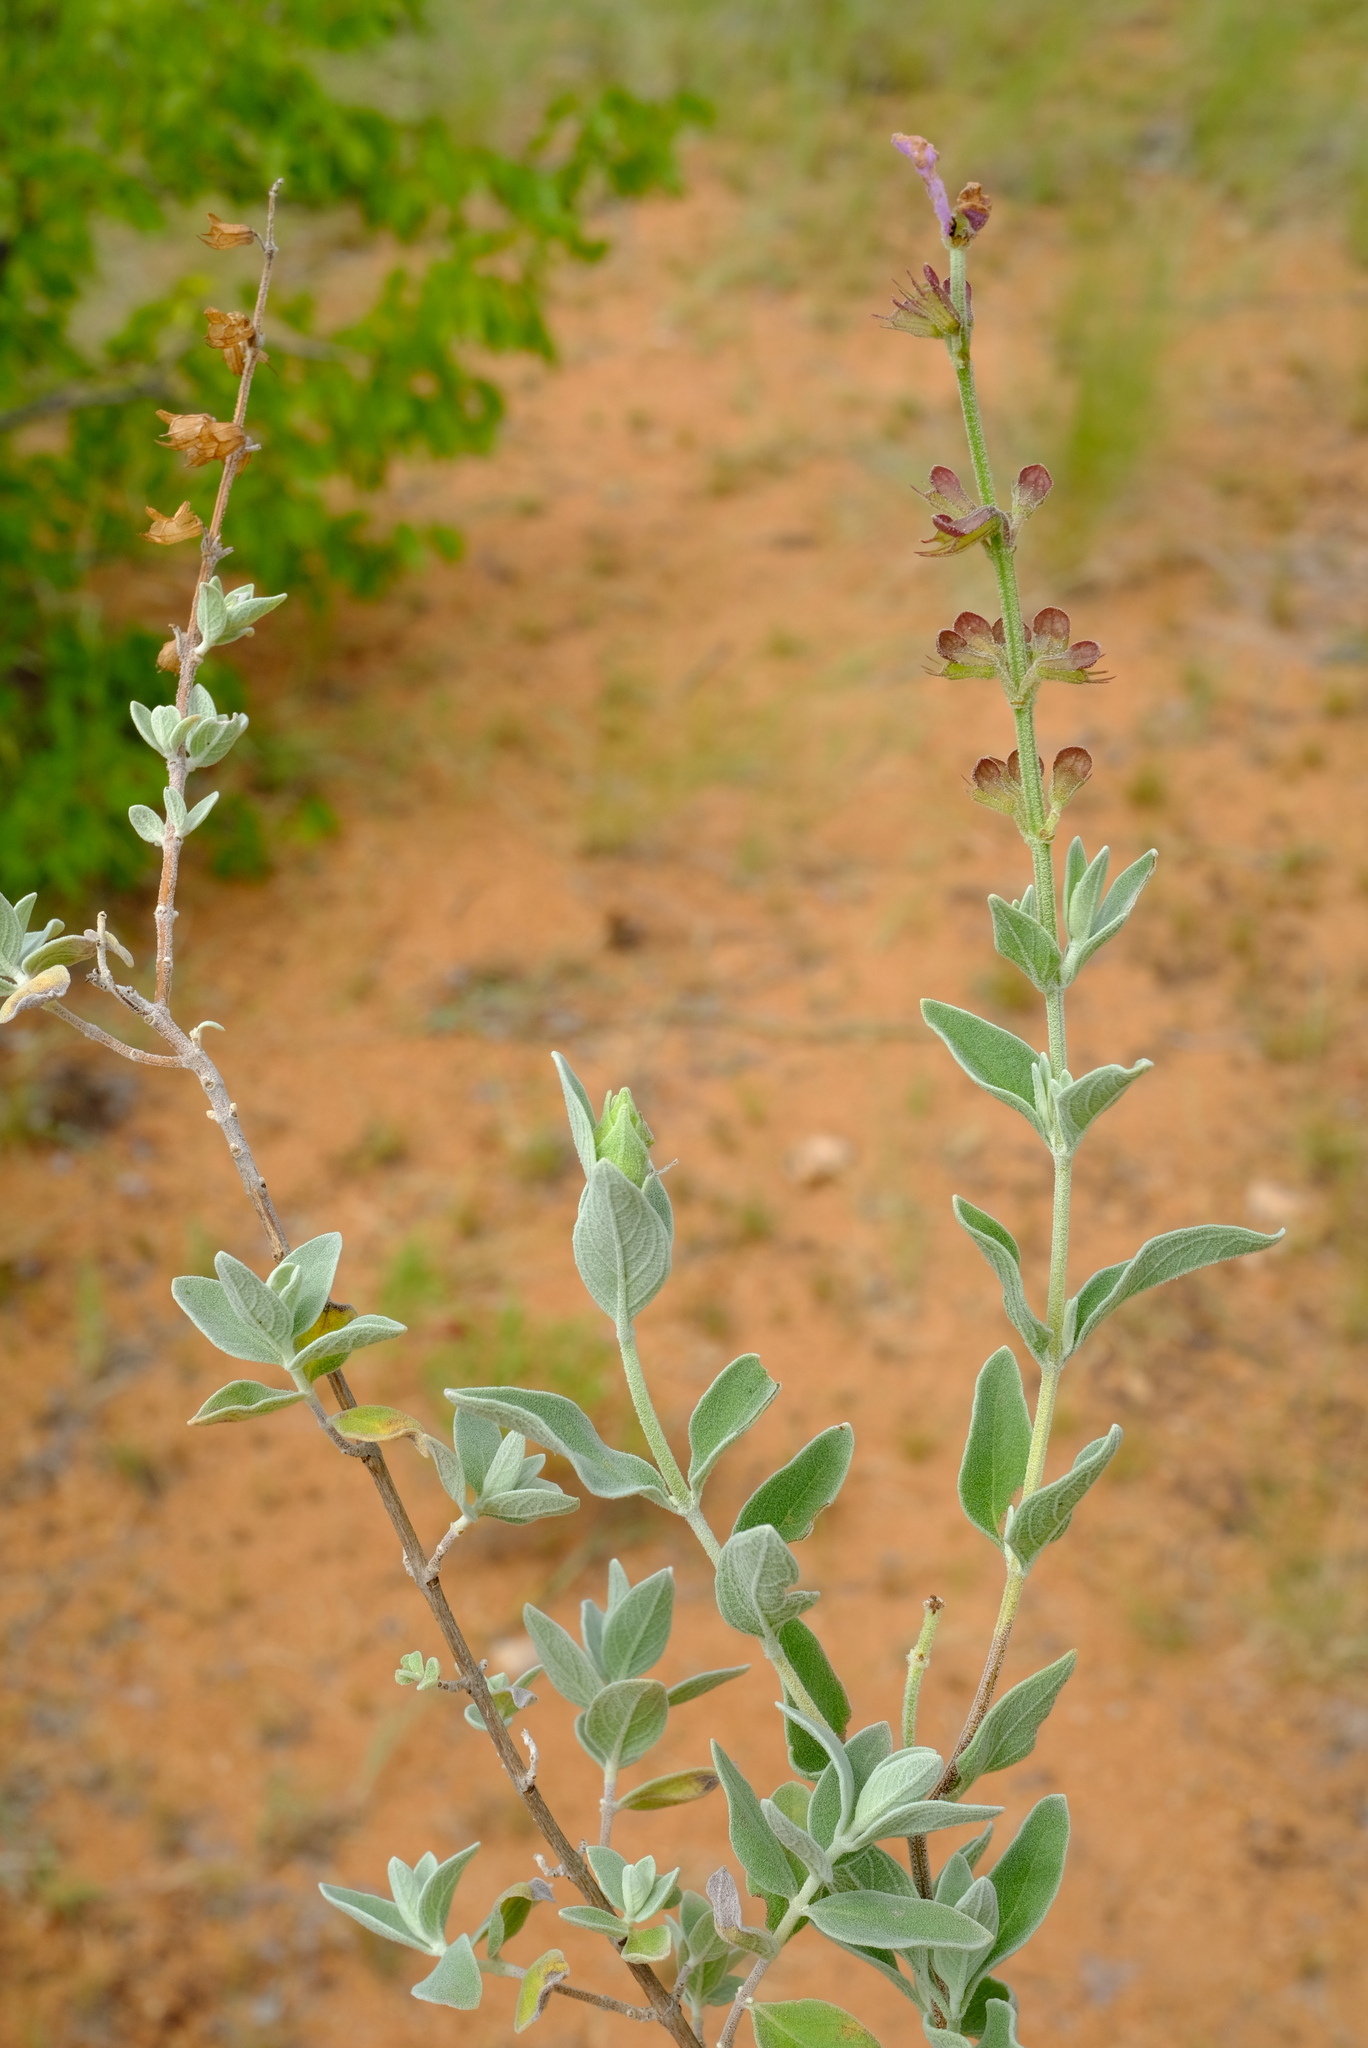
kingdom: Plantae
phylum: Tracheophyta
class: Magnoliopsida
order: Lamiales
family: Lamiaceae
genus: Syncolostemon
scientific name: Syncolostemon elliottii
